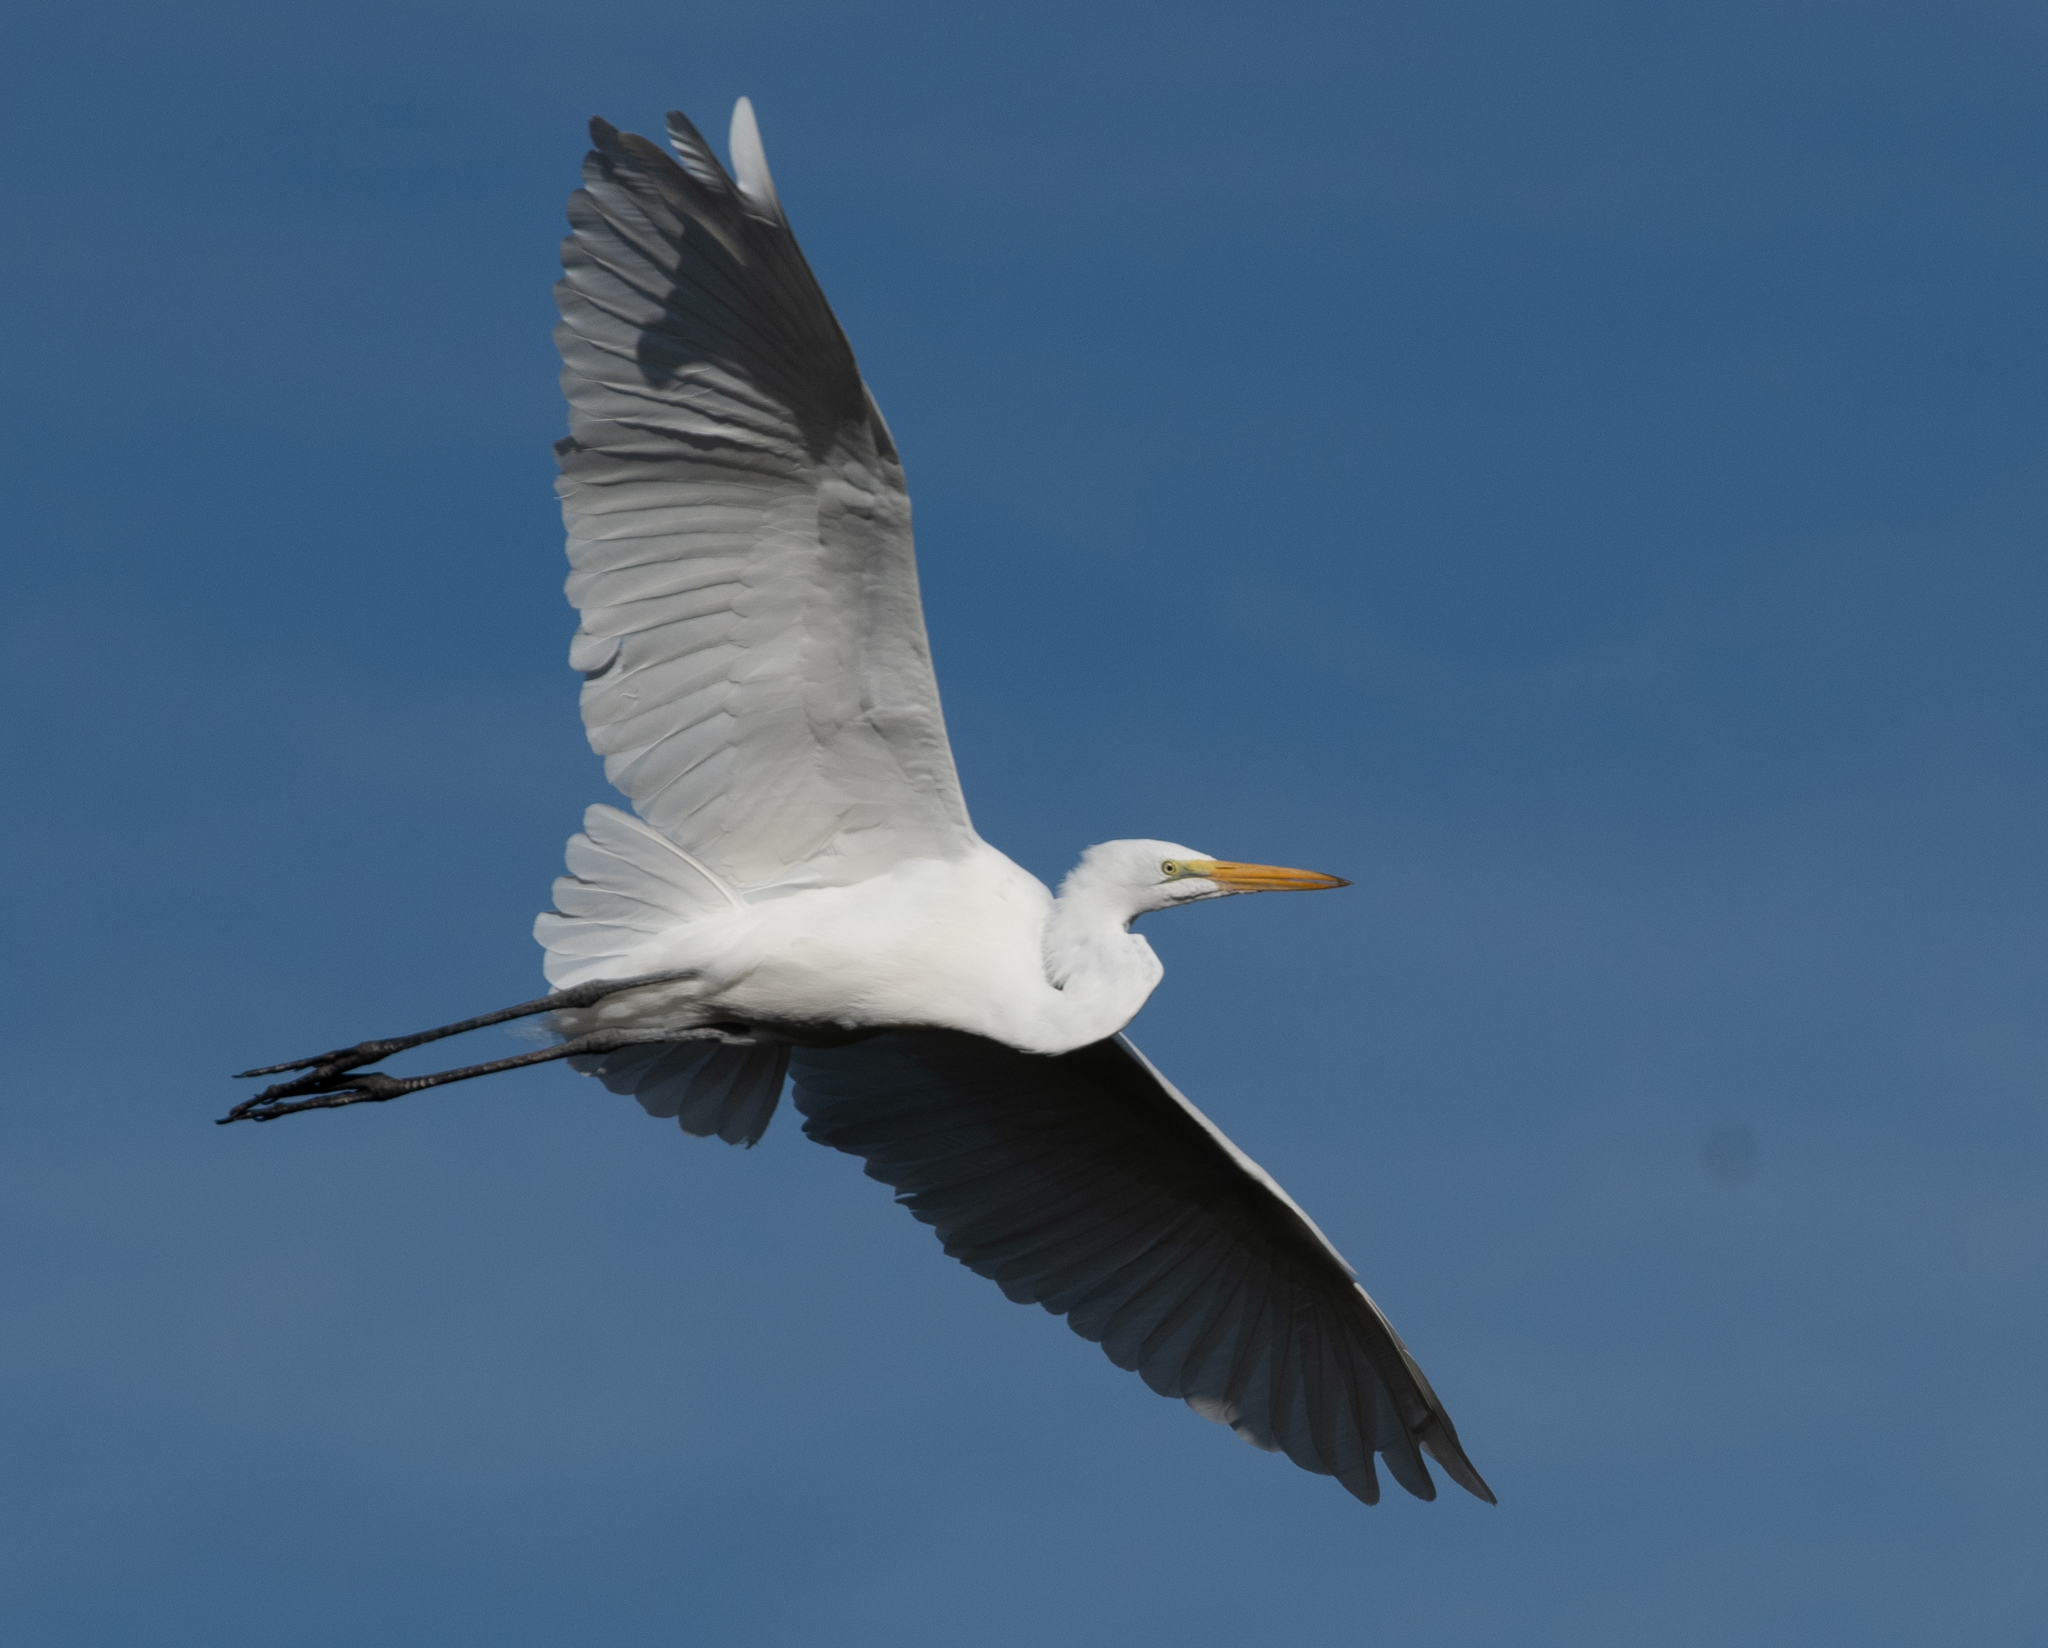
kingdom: Animalia
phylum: Chordata
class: Aves
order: Pelecaniformes
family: Ardeidae
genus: Ardea
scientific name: Ardea alba
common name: Great egret
